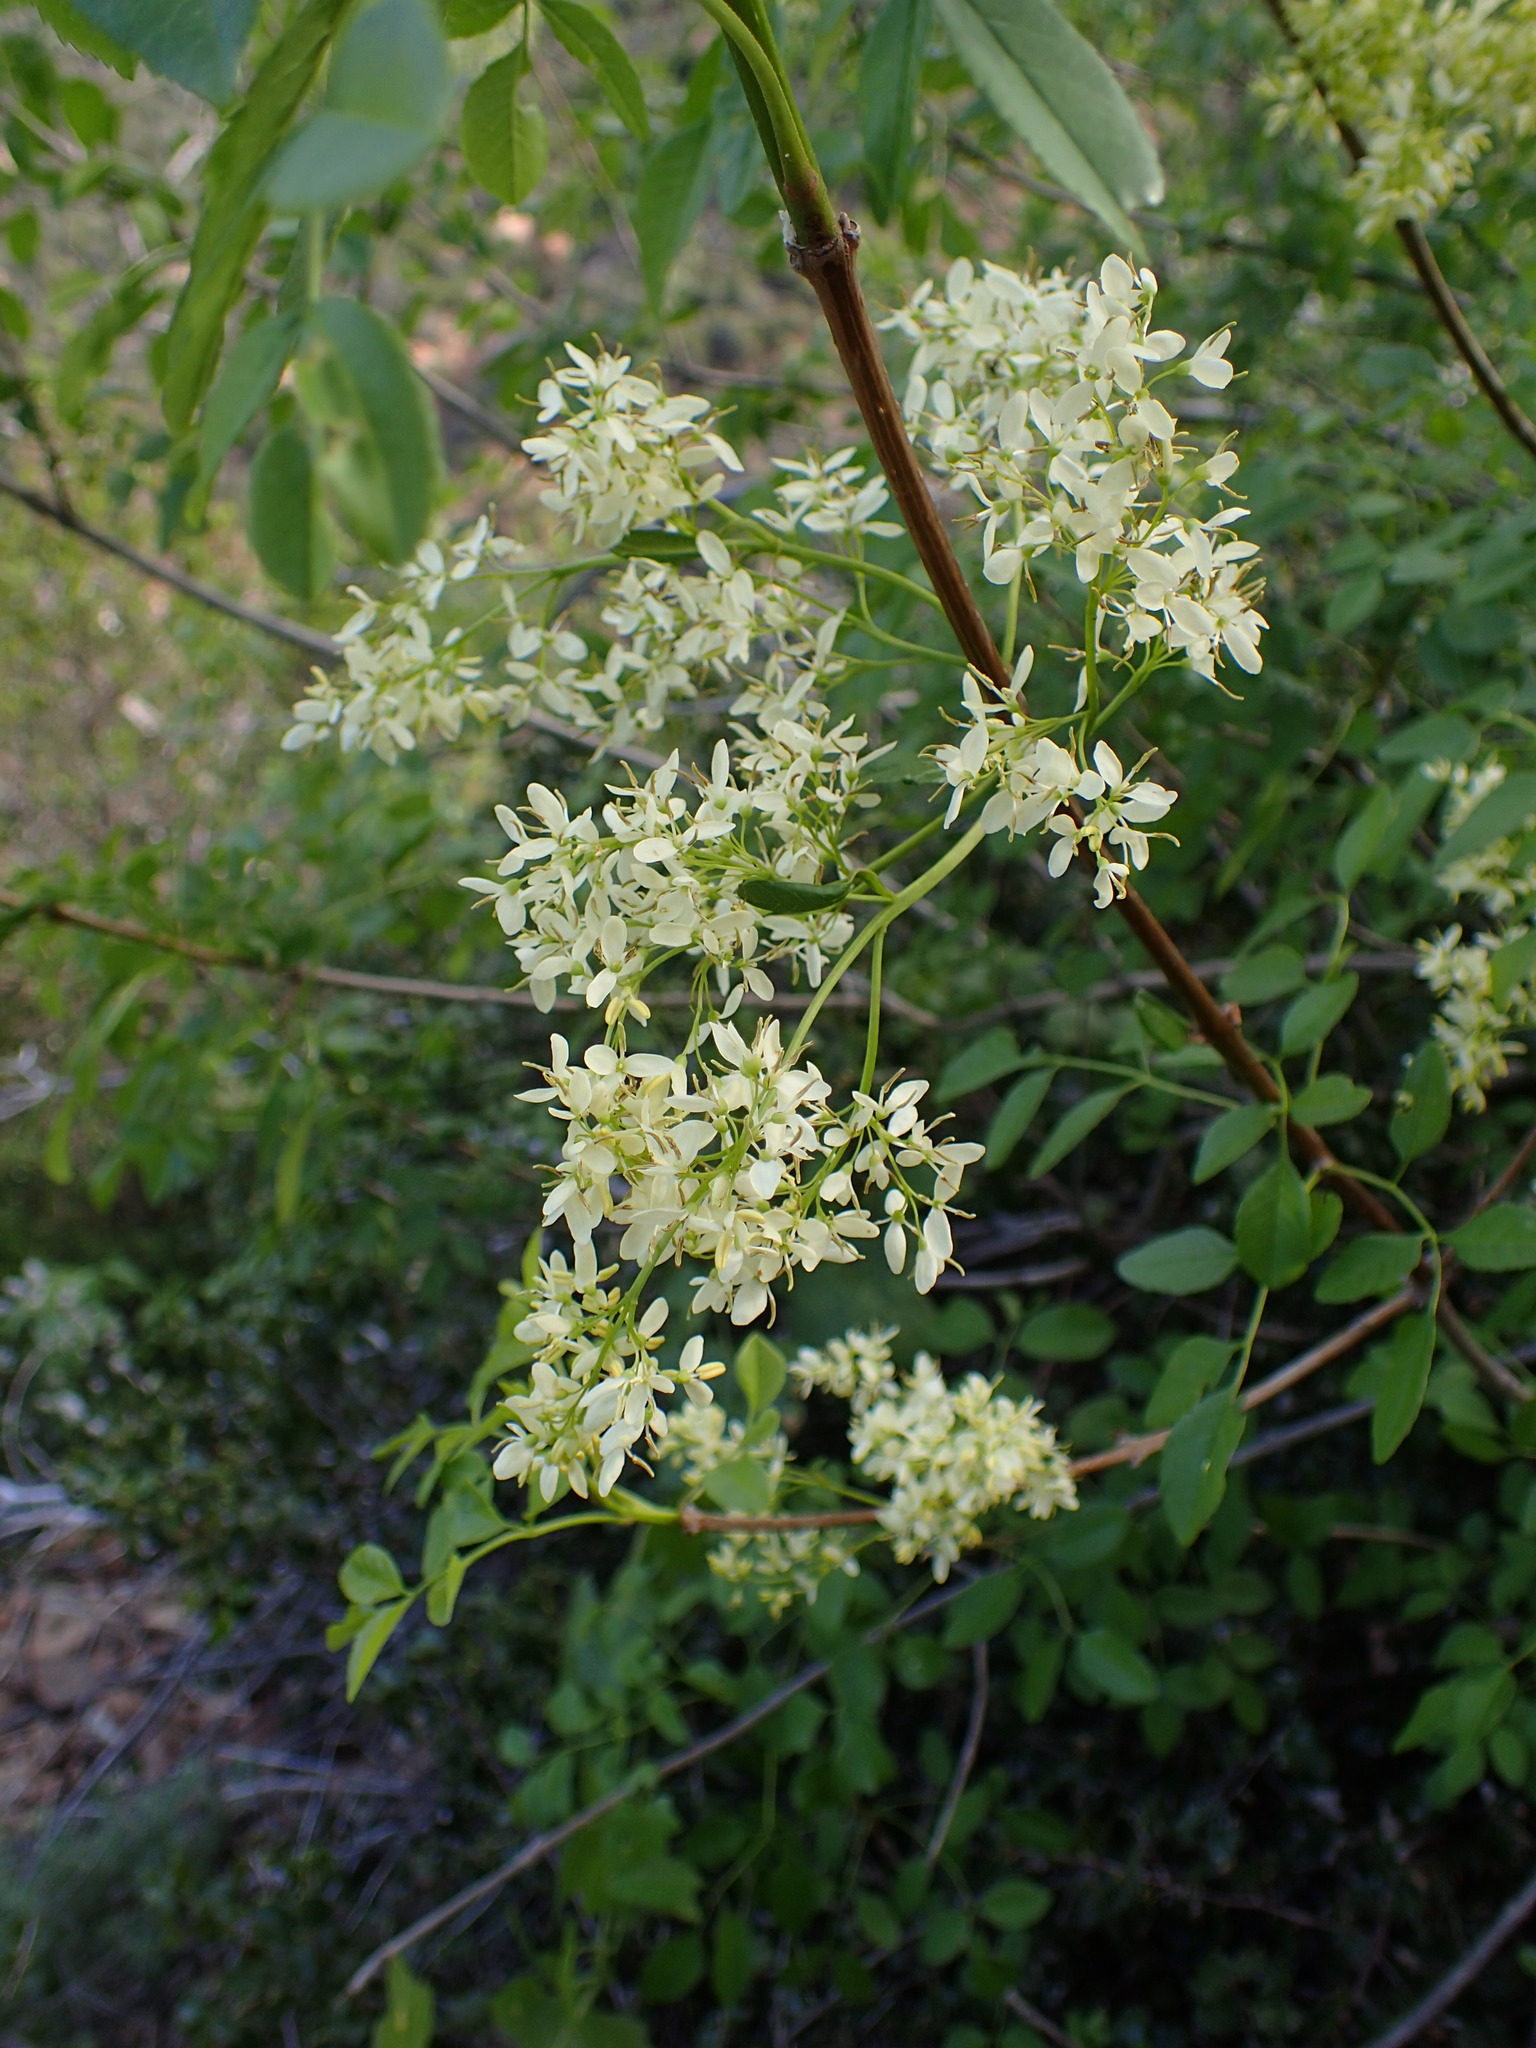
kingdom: Plantae
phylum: Tracheophyta
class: Magnoliopsida
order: Lamiales
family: Oleaceae
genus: Fraxinus
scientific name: Fraxinus dipetala
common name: California ash
